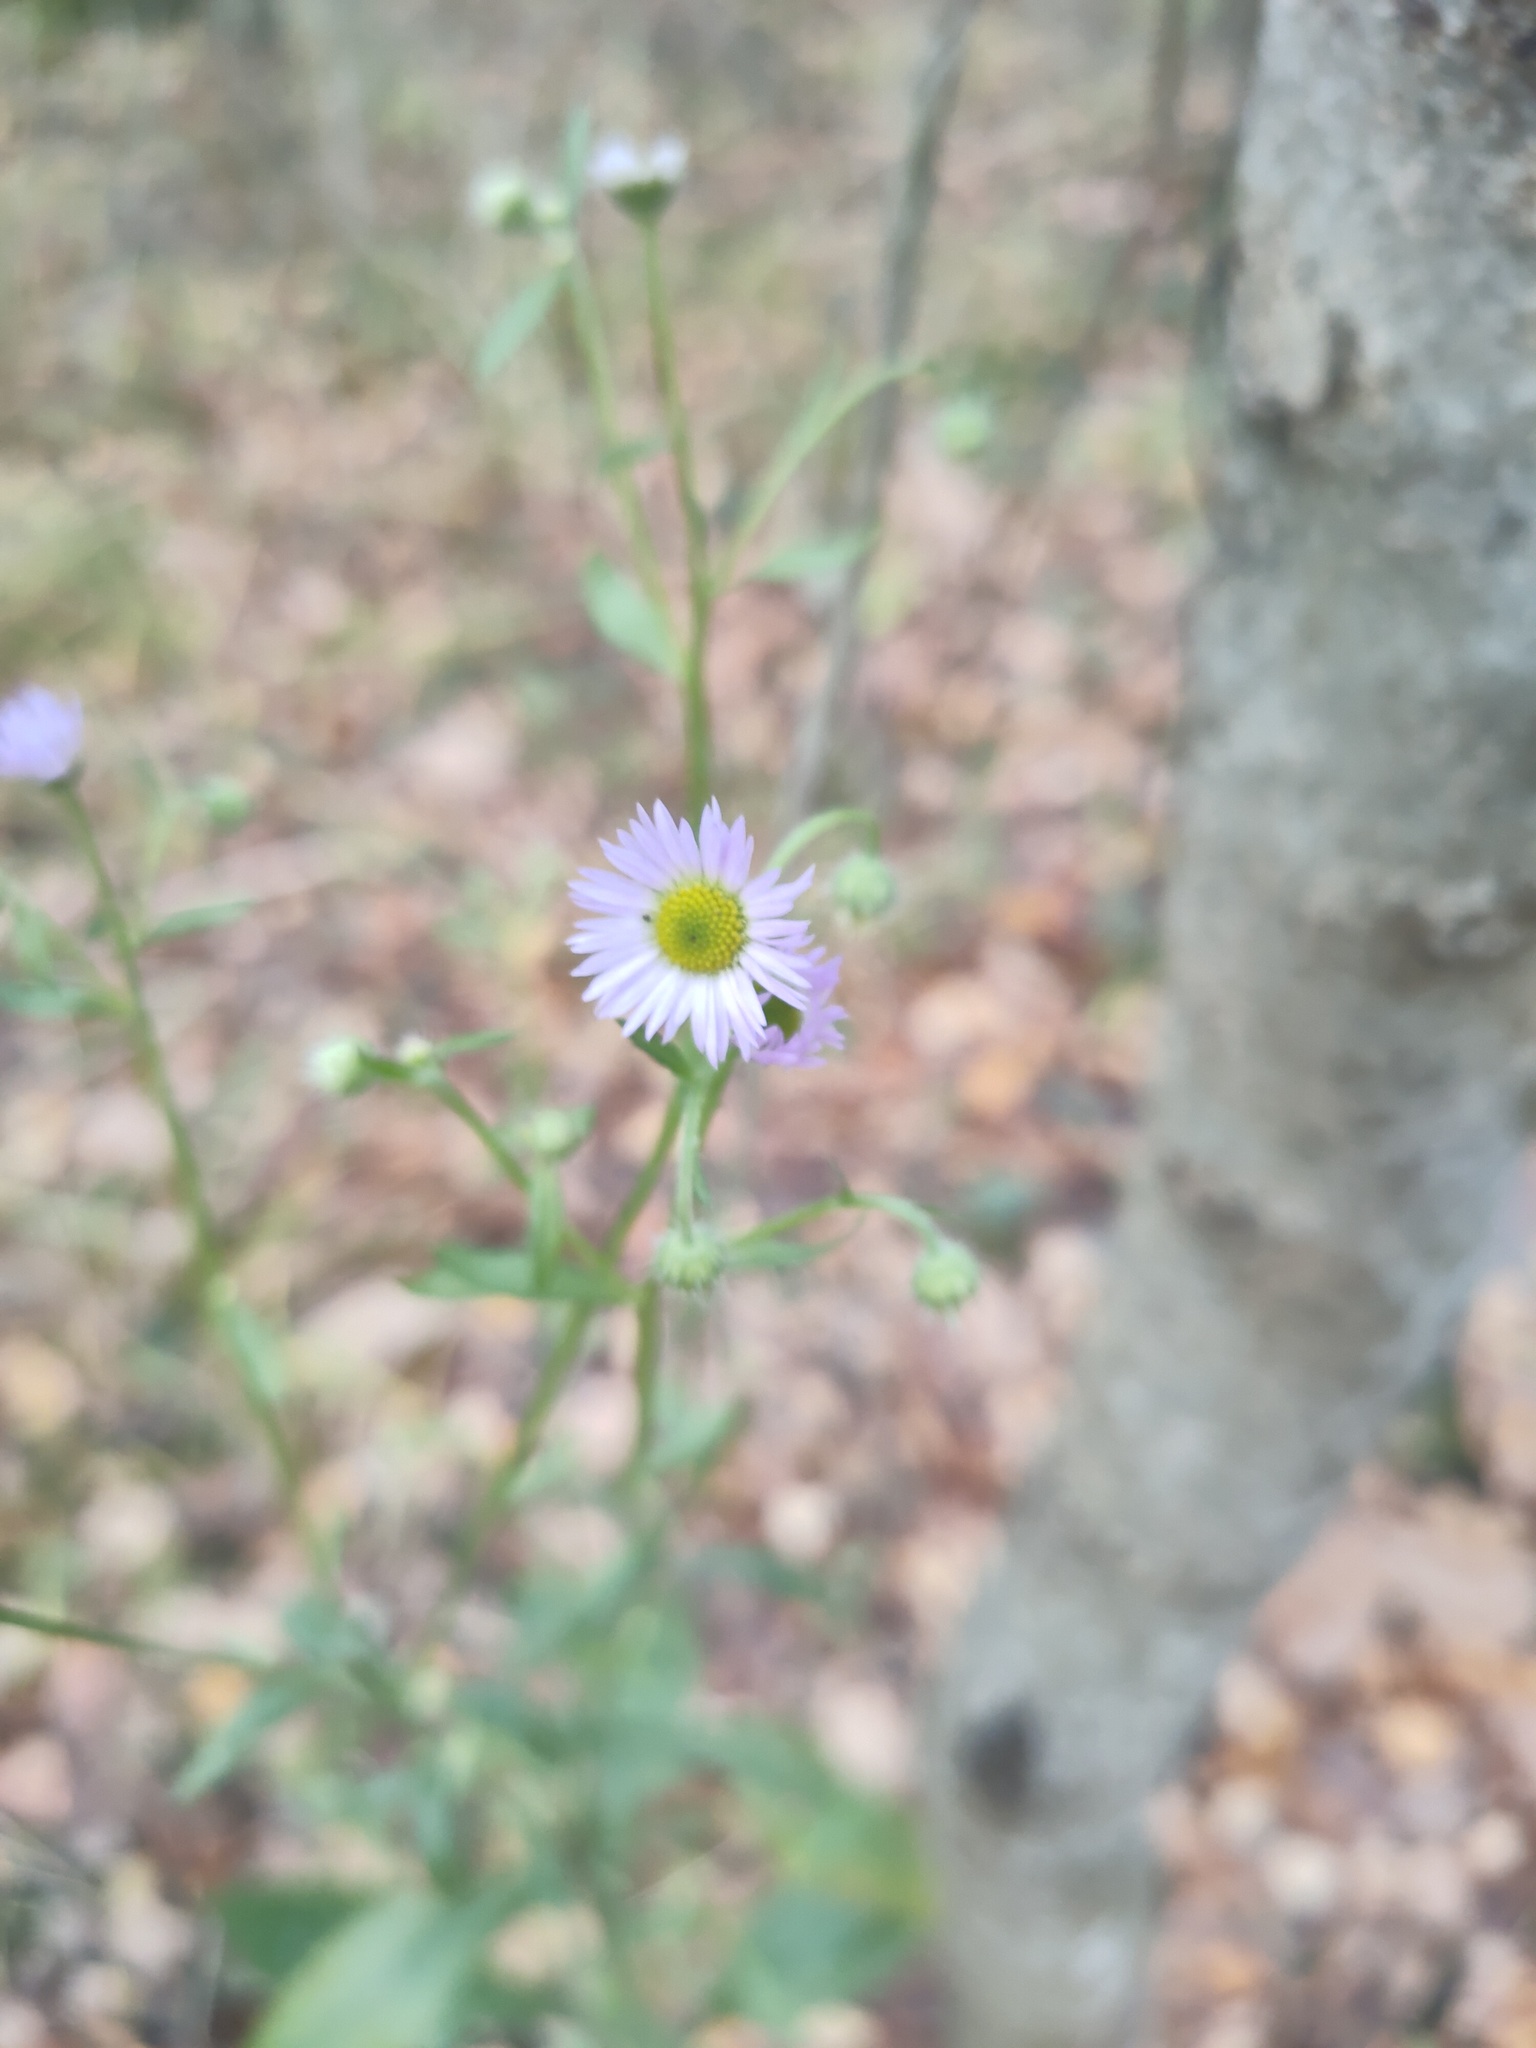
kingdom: Plantae
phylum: Tracheophyta
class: Magnoliopsida
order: Asterales
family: Asteraceae
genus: Erigeron
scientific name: Erigeron annuus
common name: Tall fleabane
